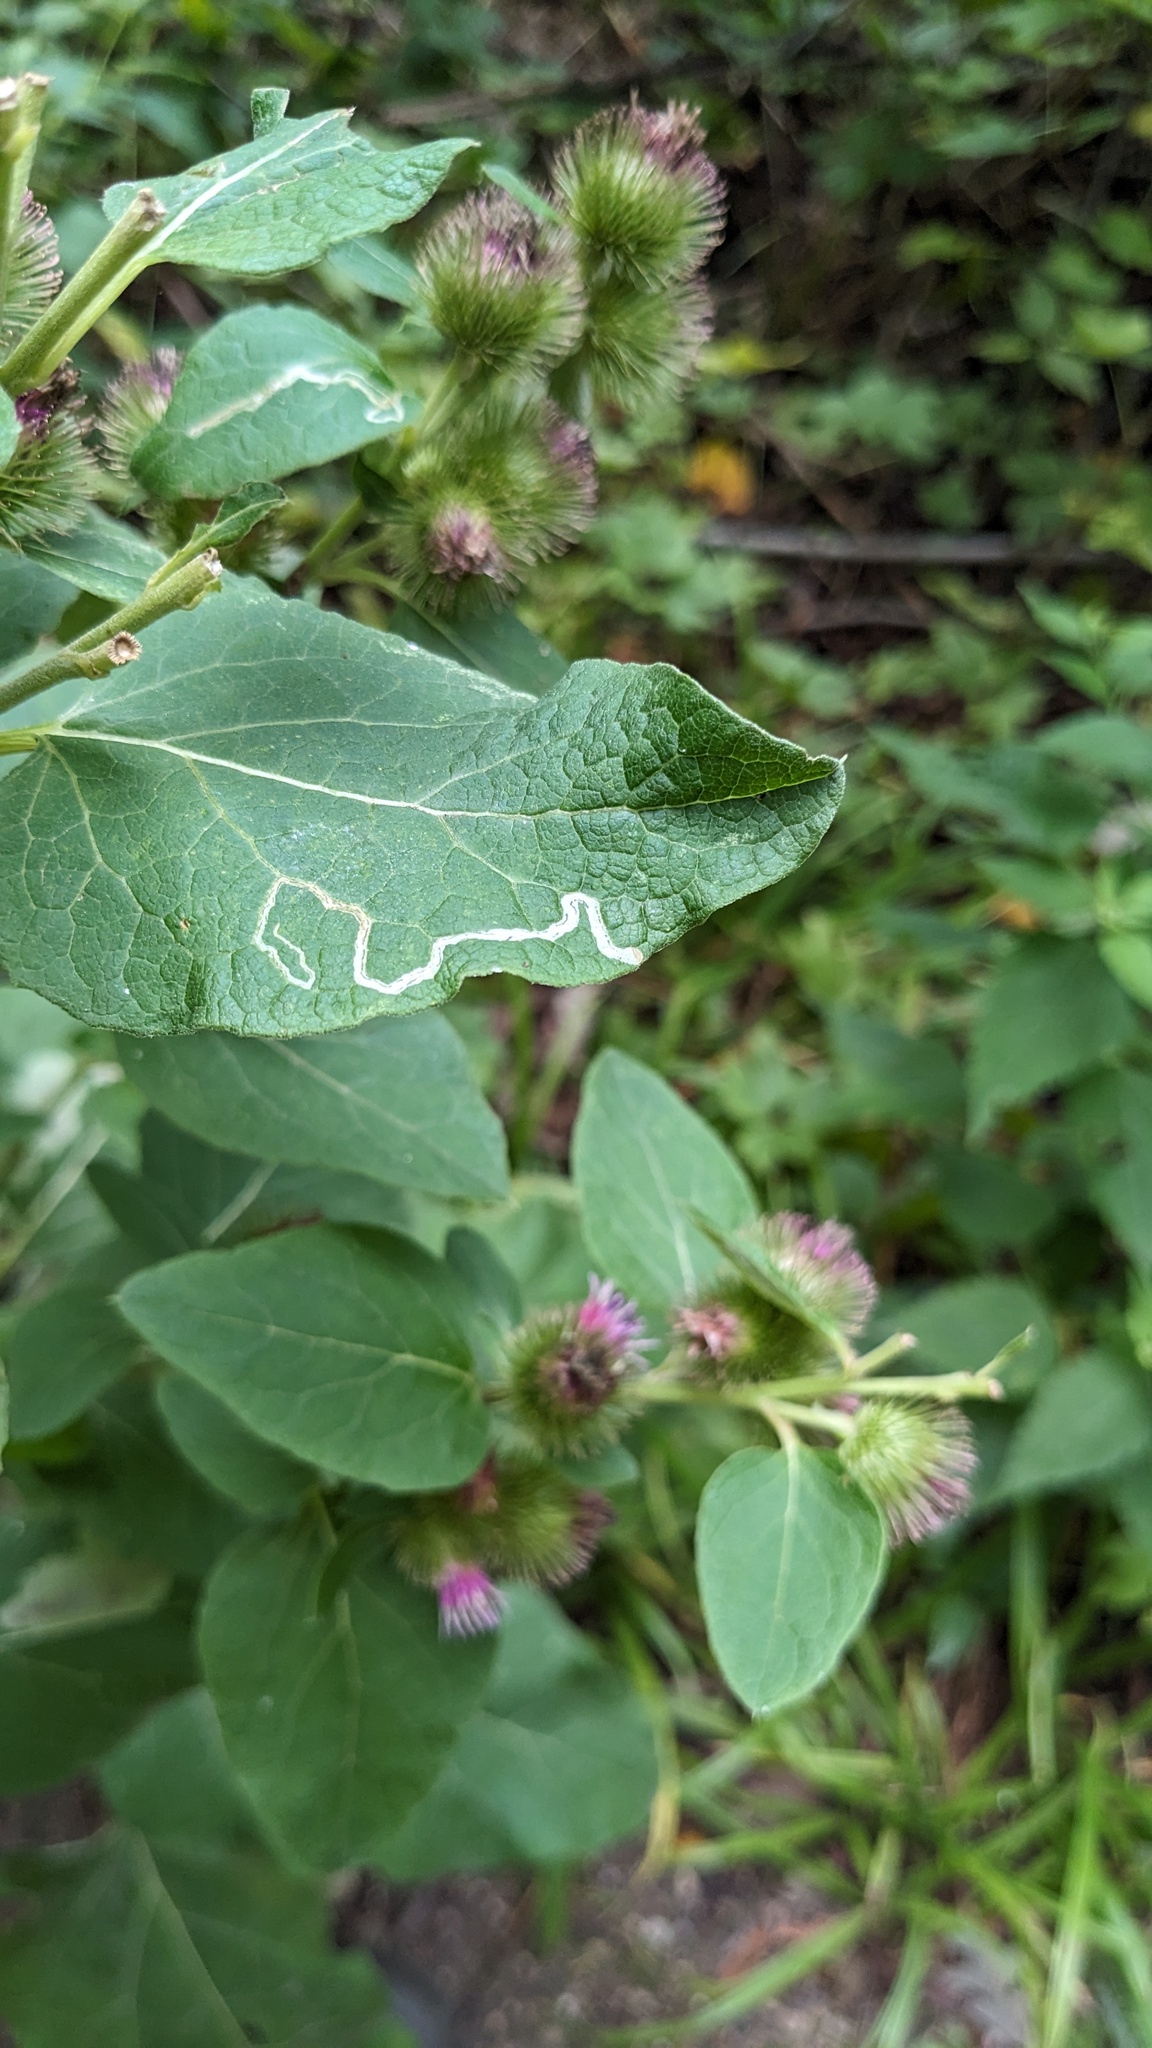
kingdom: Animalia
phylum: Arthropoda
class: Insecta
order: Diptera
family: Agromyzidae
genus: Liriomyza
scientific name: Liriomyza arctii
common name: Burdock leafminer
